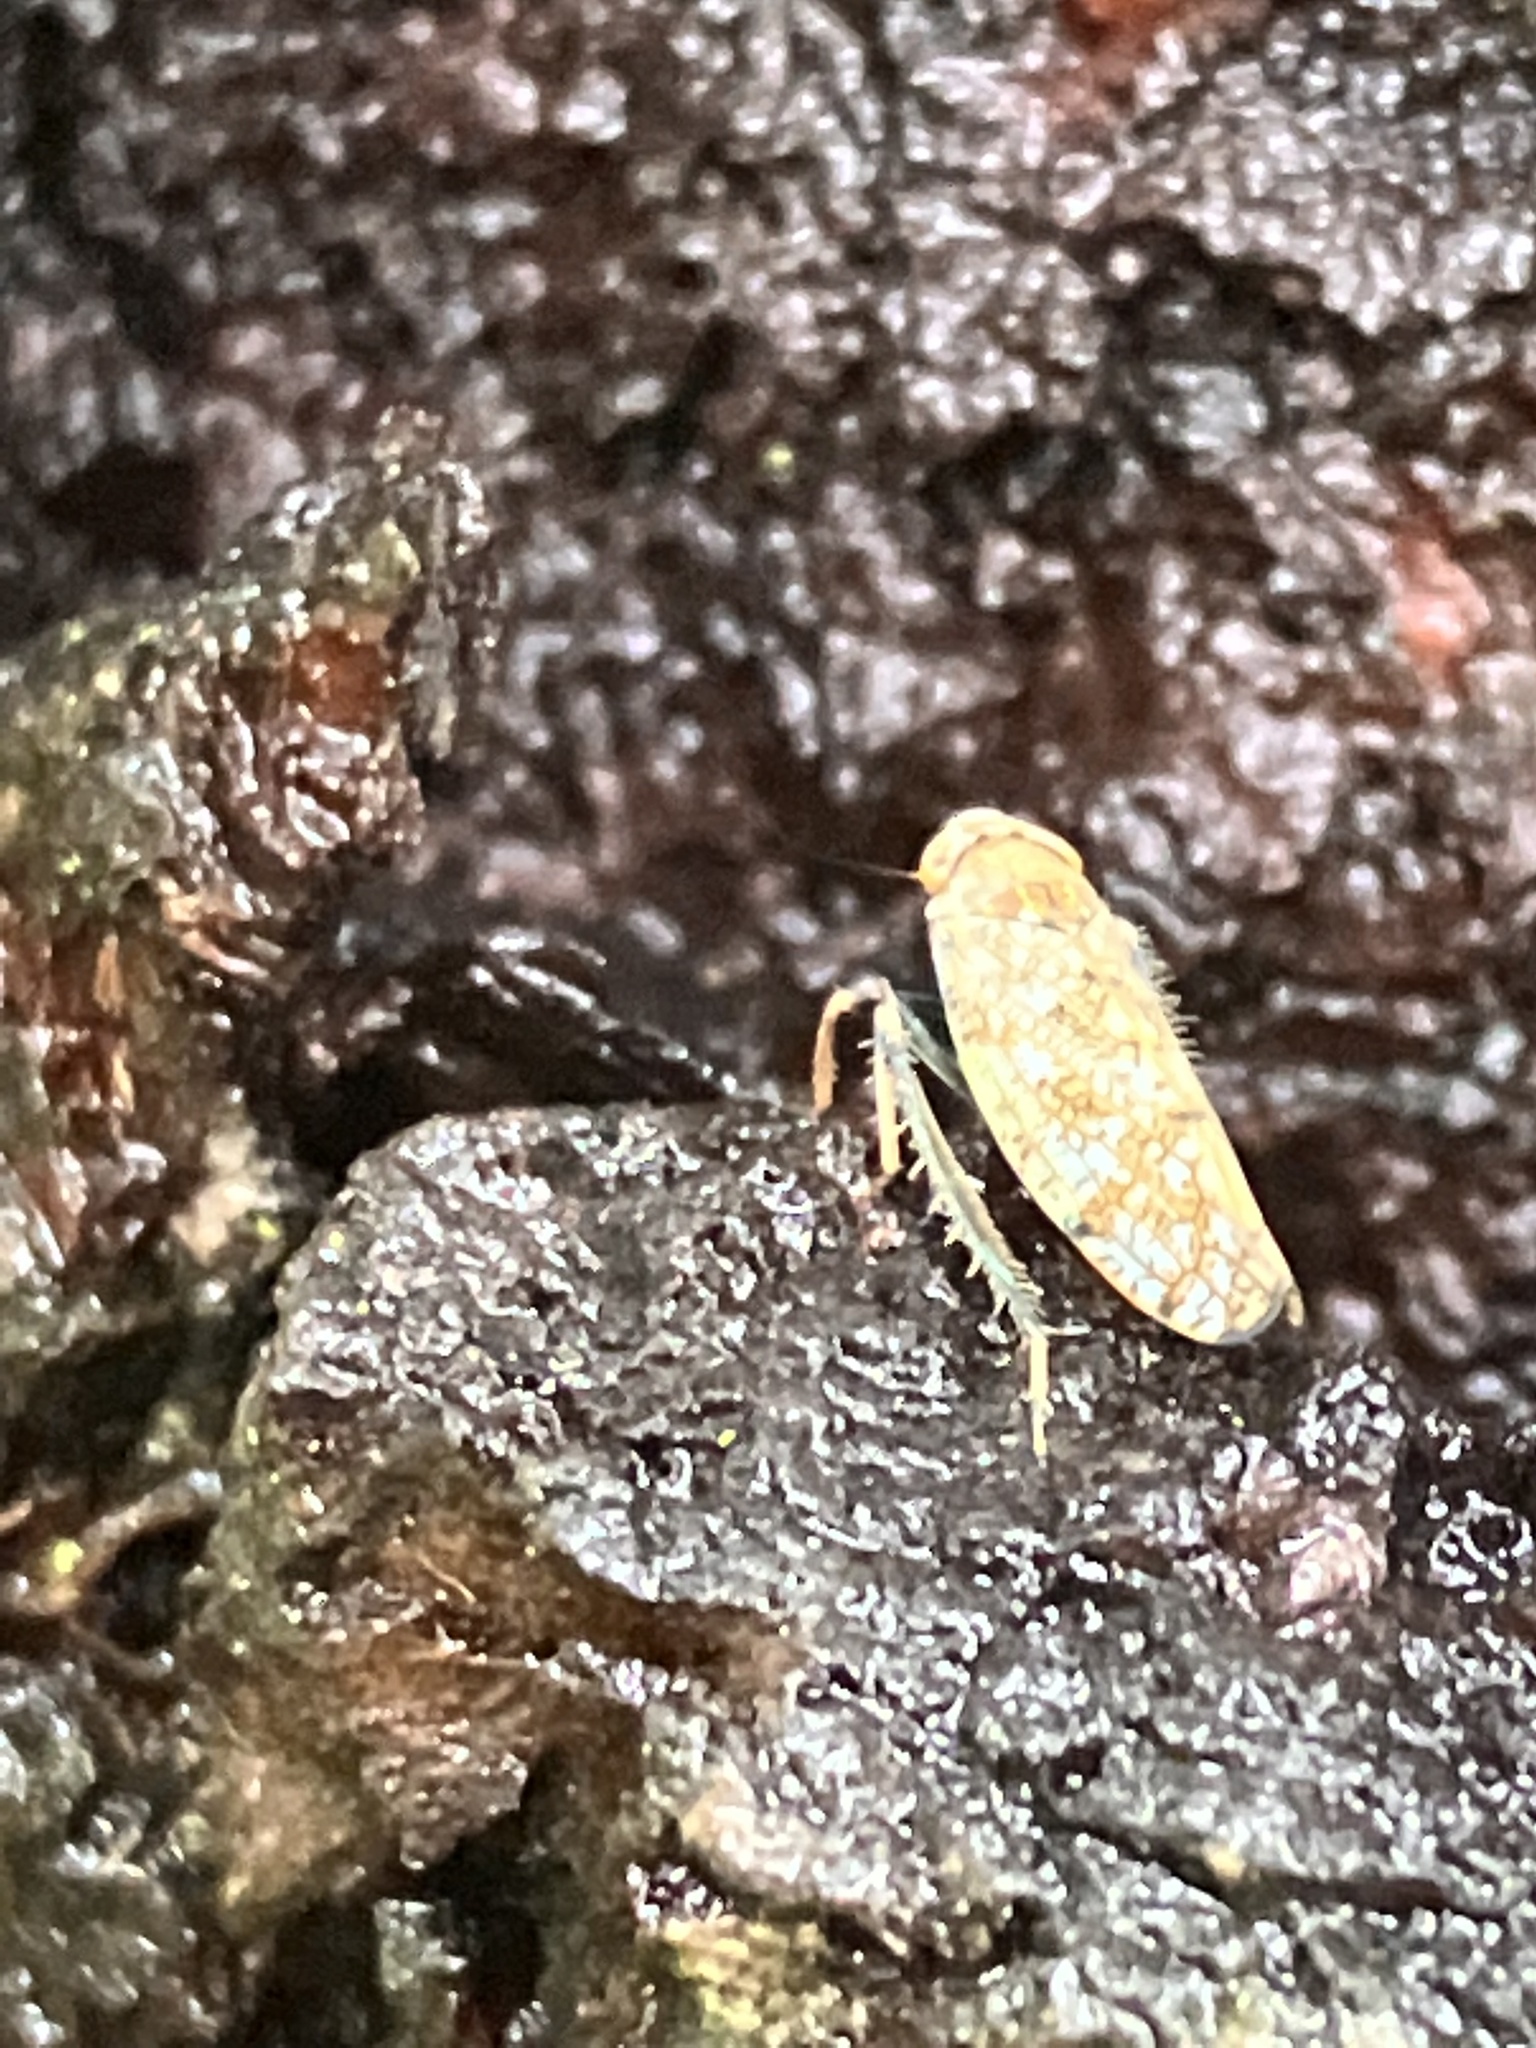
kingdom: Animalia
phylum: Arthropoda
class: Insecta
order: Hemiptera
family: Cicadellidae
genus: Orientus
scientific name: Orientus ishidae
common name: Japanese leafhopper
